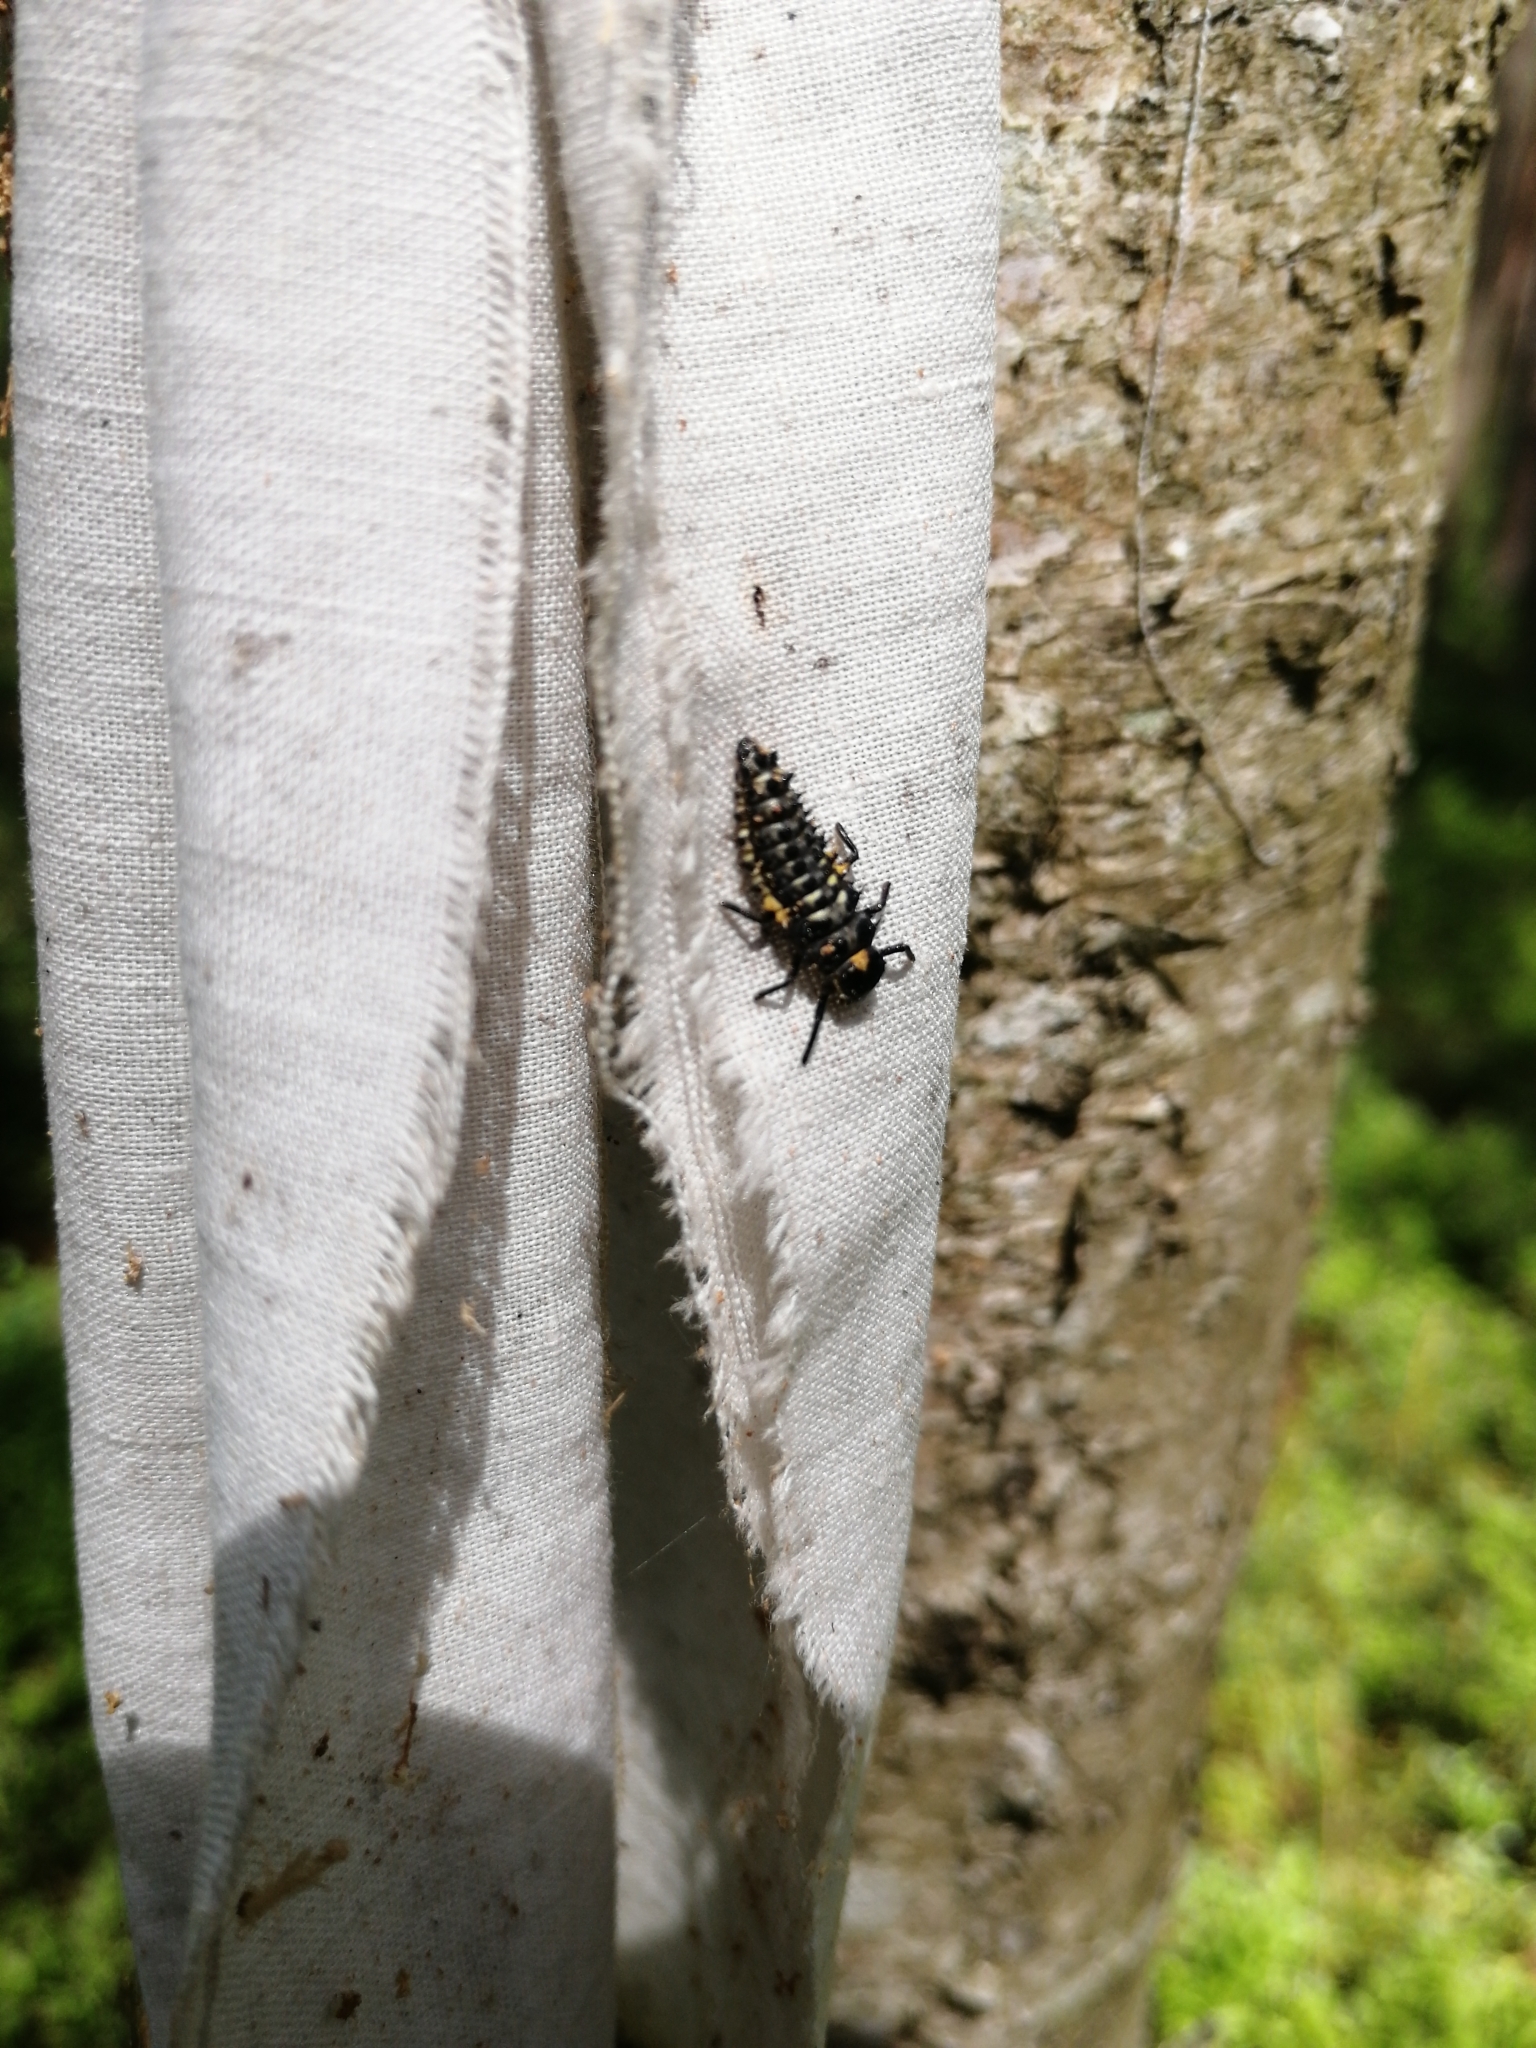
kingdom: Animalia
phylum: Arthropoda
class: Insecta
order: Coleoptera
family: Coccinellidae
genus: Anatis
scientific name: Anatis ocellata
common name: Eyed ladybird
